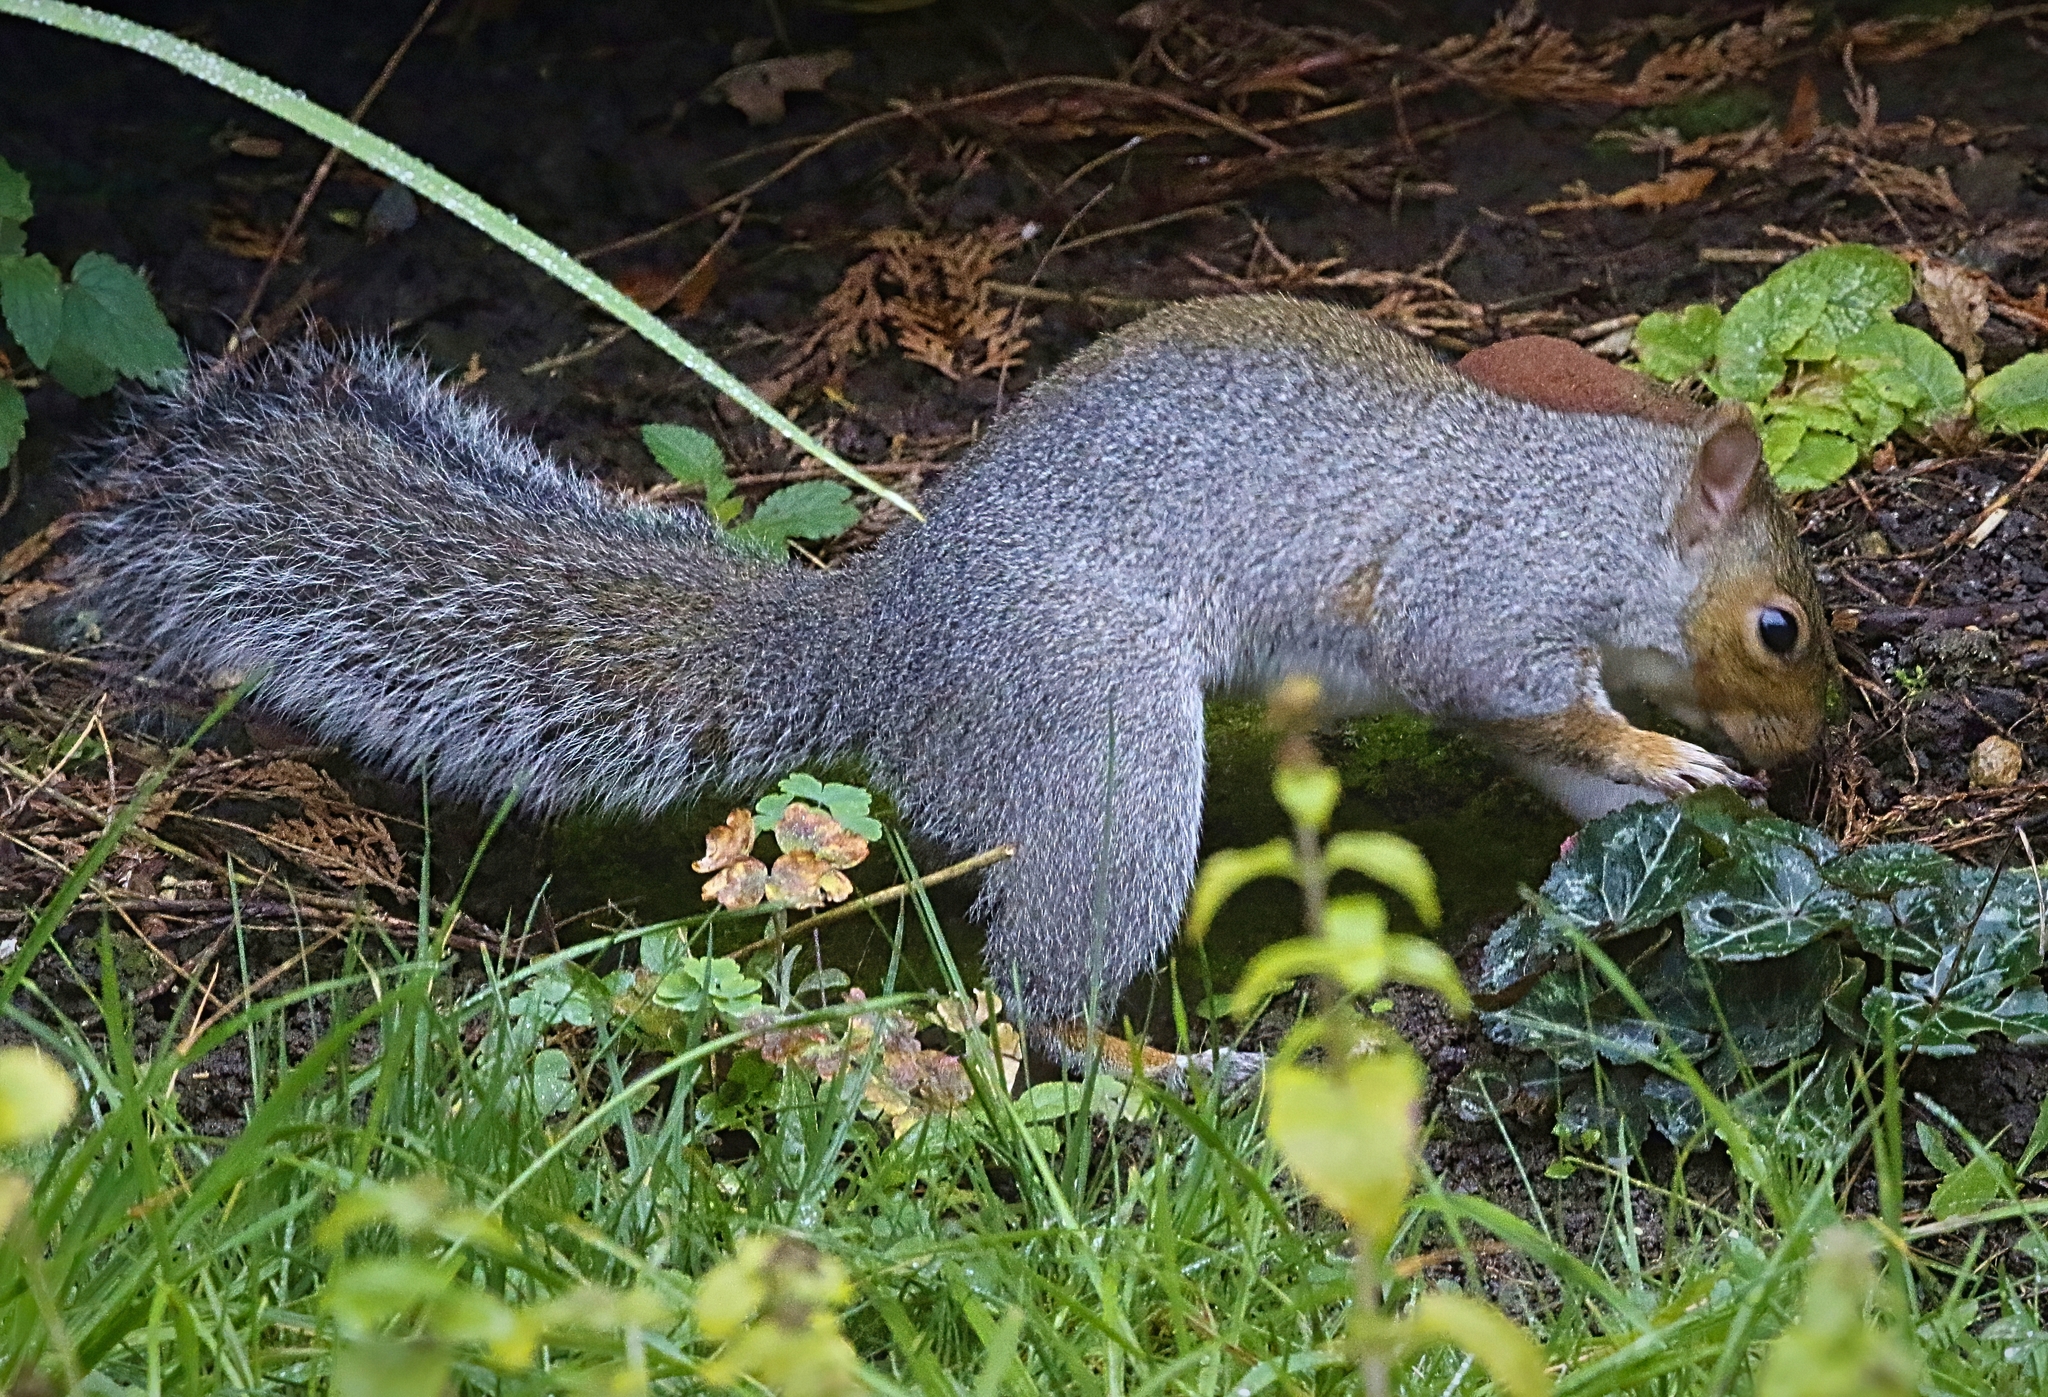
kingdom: Animalia
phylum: Chordata
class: Mammalia
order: Rodentia
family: Sciuridae
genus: Sciurus
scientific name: Sciurus carolinensis
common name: Eastern gray squirrel
